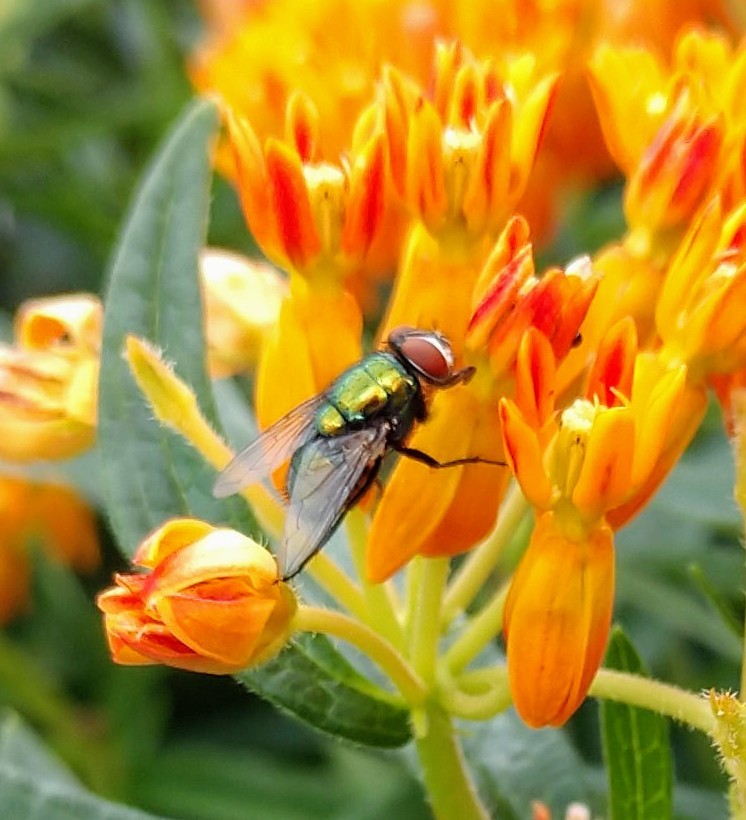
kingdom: Animalia
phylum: Arthropoda
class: Insecta
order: Diptera
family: Calliphoridae
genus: Lucilia
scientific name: Lucilia sericata
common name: Blow fly
